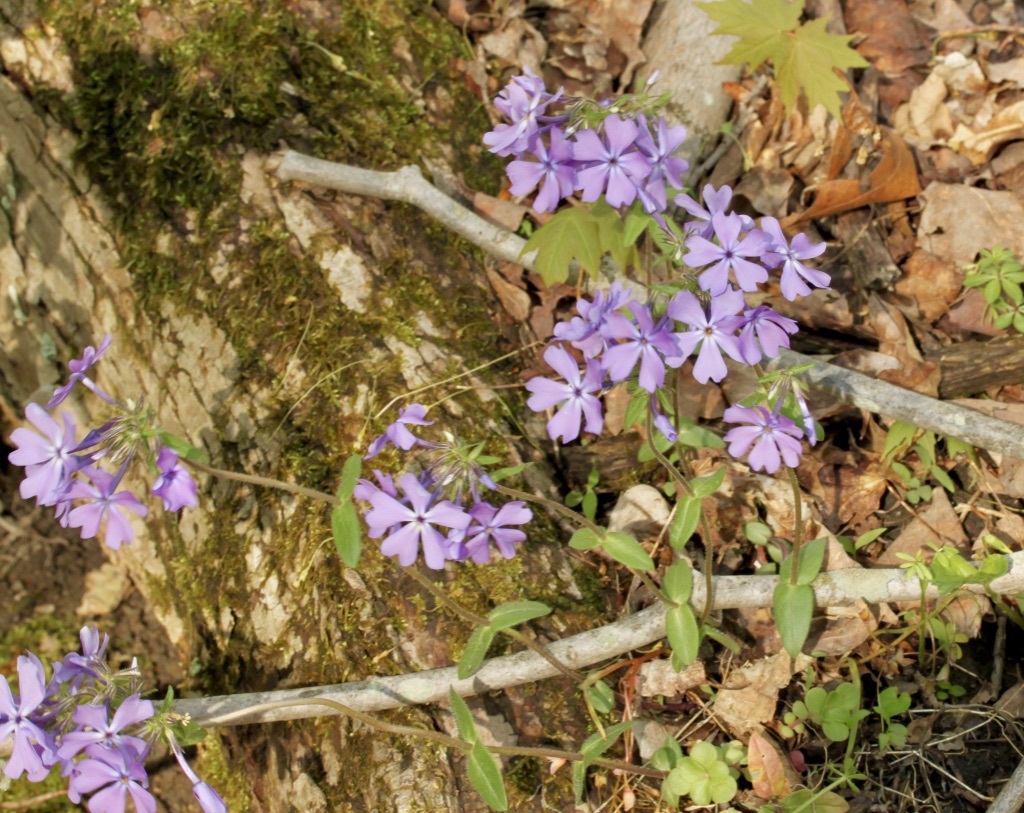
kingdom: Plantae
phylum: Tracheophyta
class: Magnoliopsida
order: Ericales
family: Polemoniaceae
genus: Phlox
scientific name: Phlox divaricata
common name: Blue phlox
